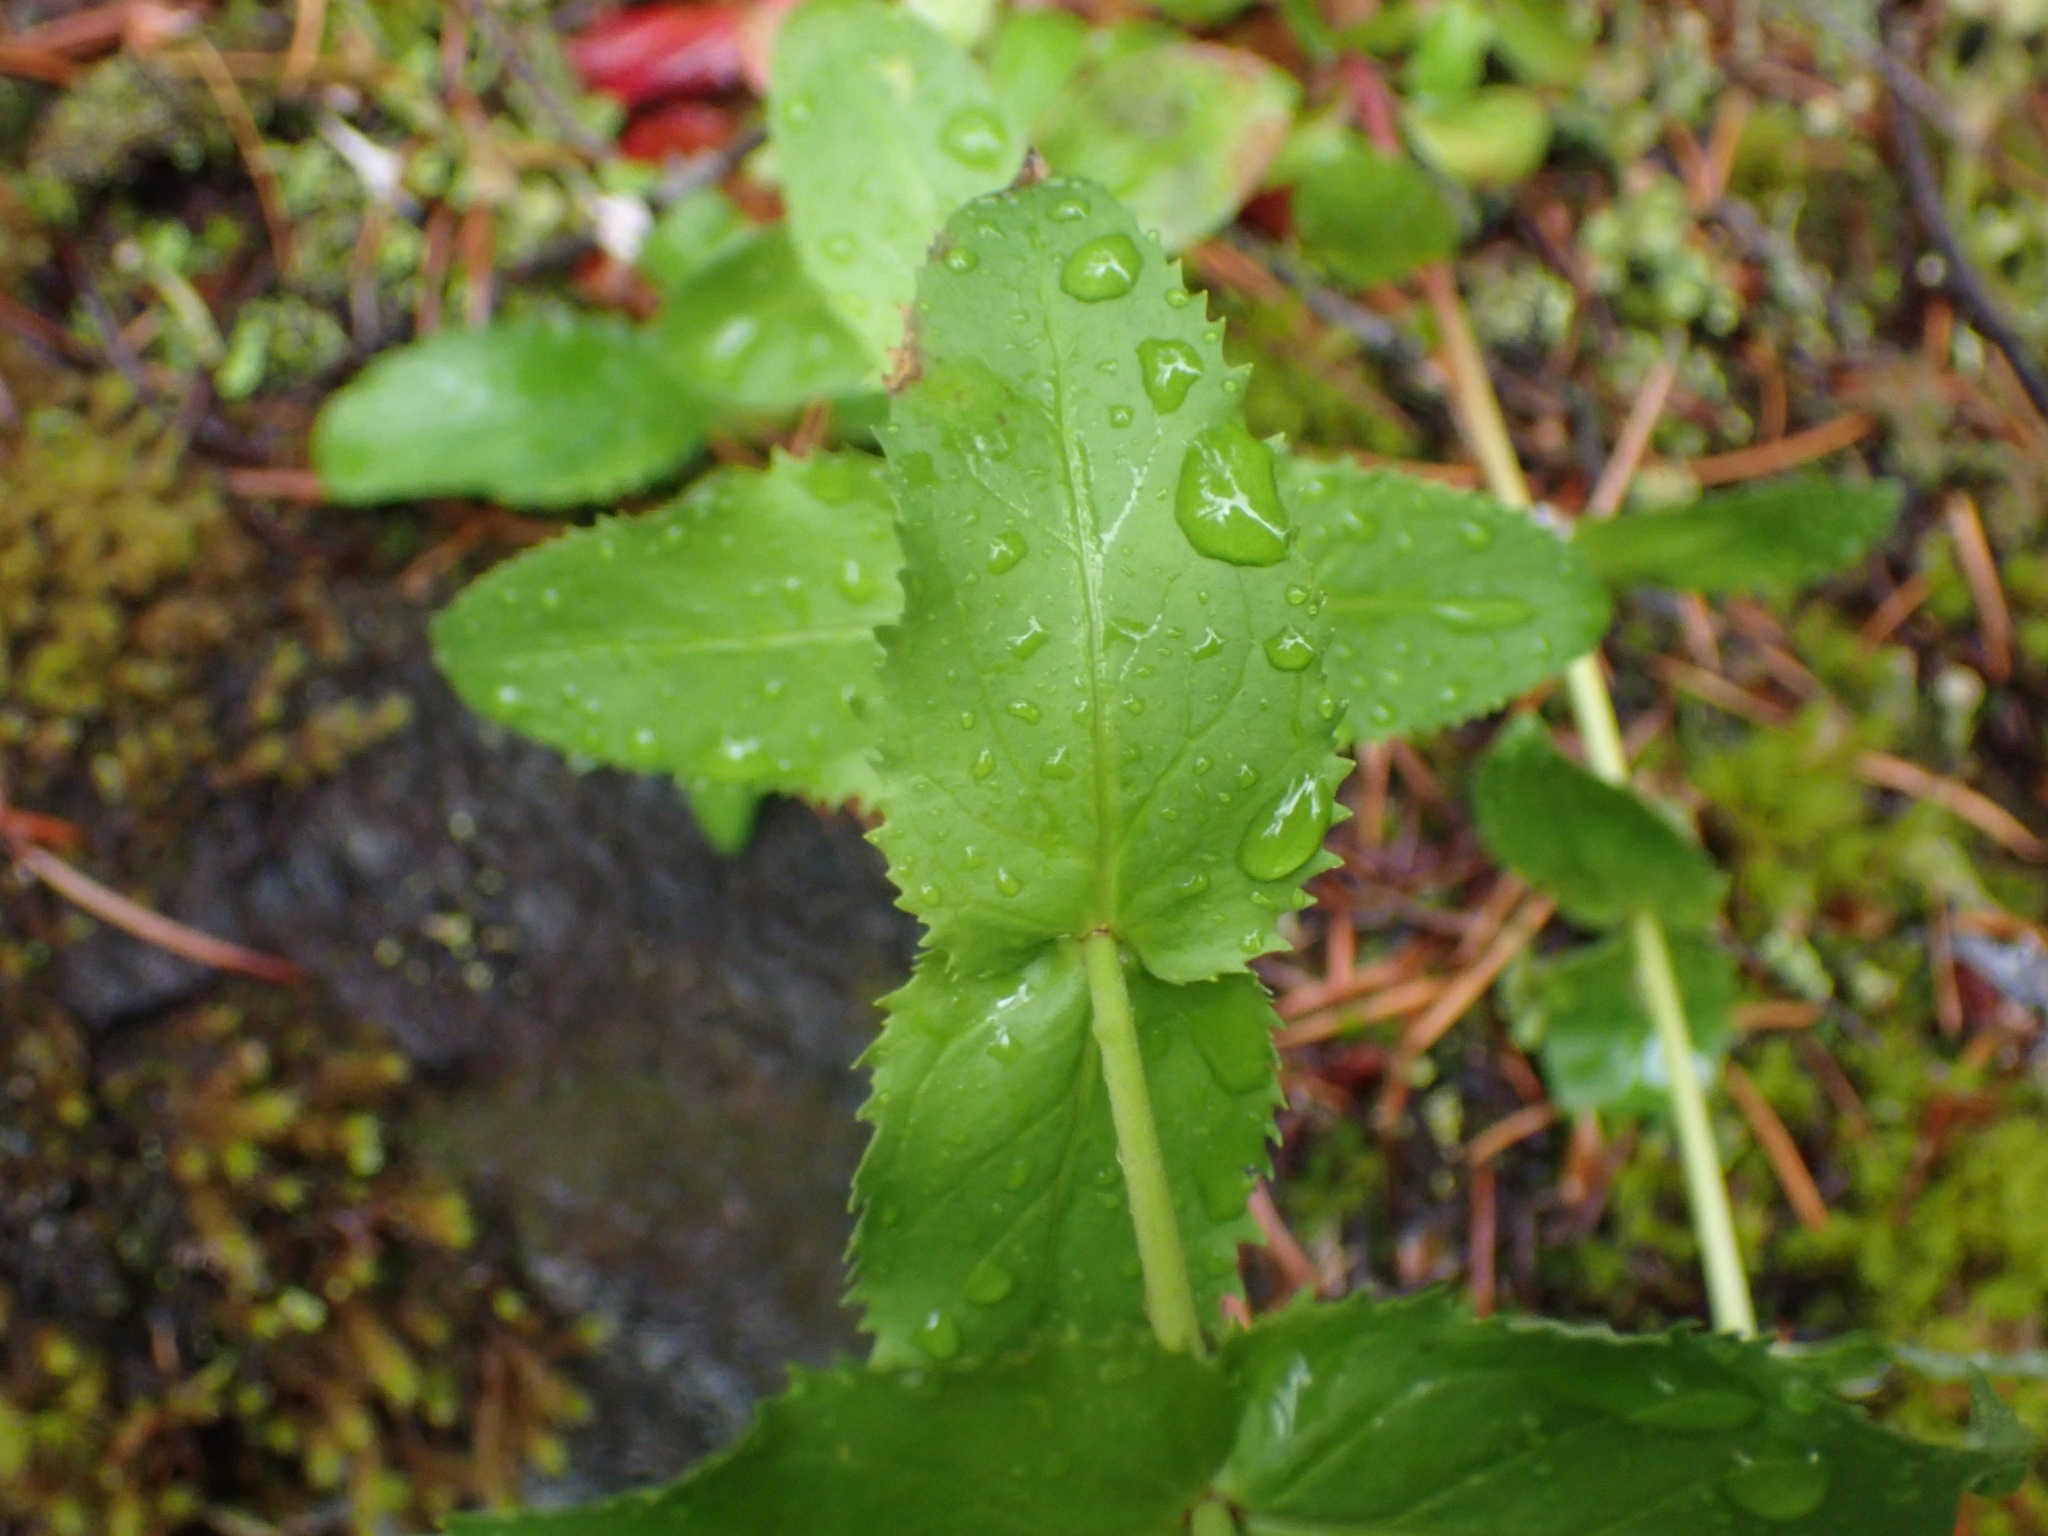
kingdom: Plantae
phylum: Tracheophyta
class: Magnoliopsida
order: Lamiales
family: Plantaginaceae
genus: Penstemon
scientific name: Penstemon serrulatus
